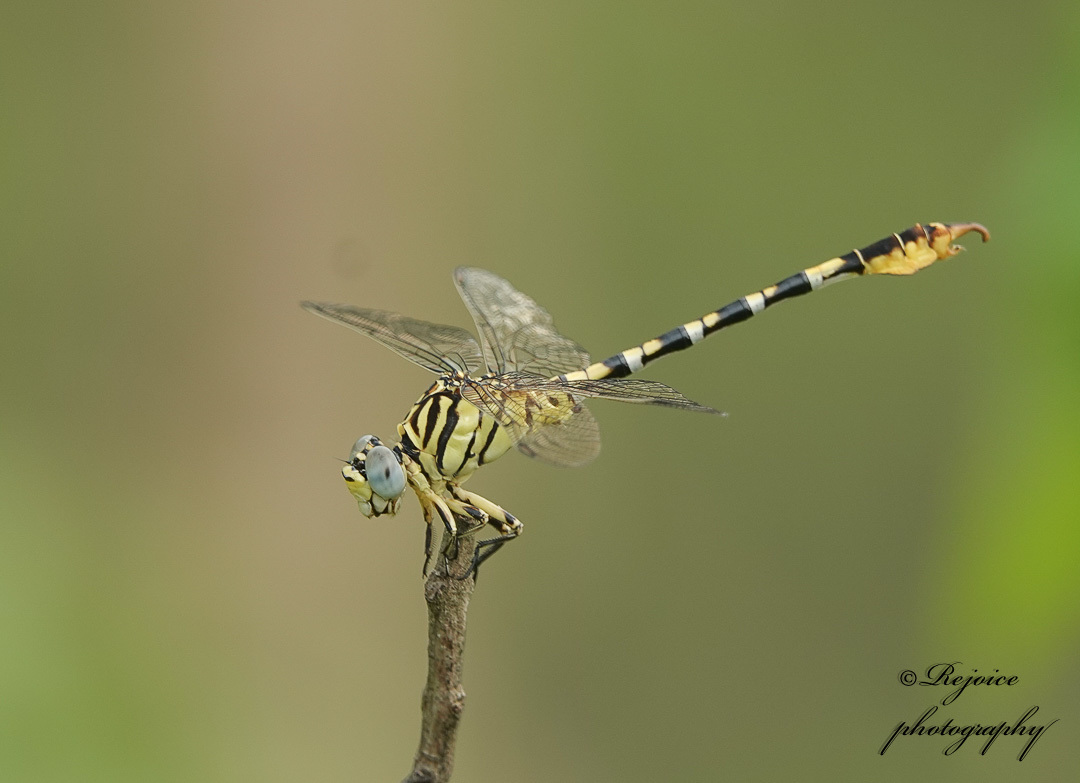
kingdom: Animalia
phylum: Arthropoda
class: Insecta
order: Odonata
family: Gomphidae
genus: Paragomphus
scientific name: Paragomphus lineatus
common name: Lined hooktail
